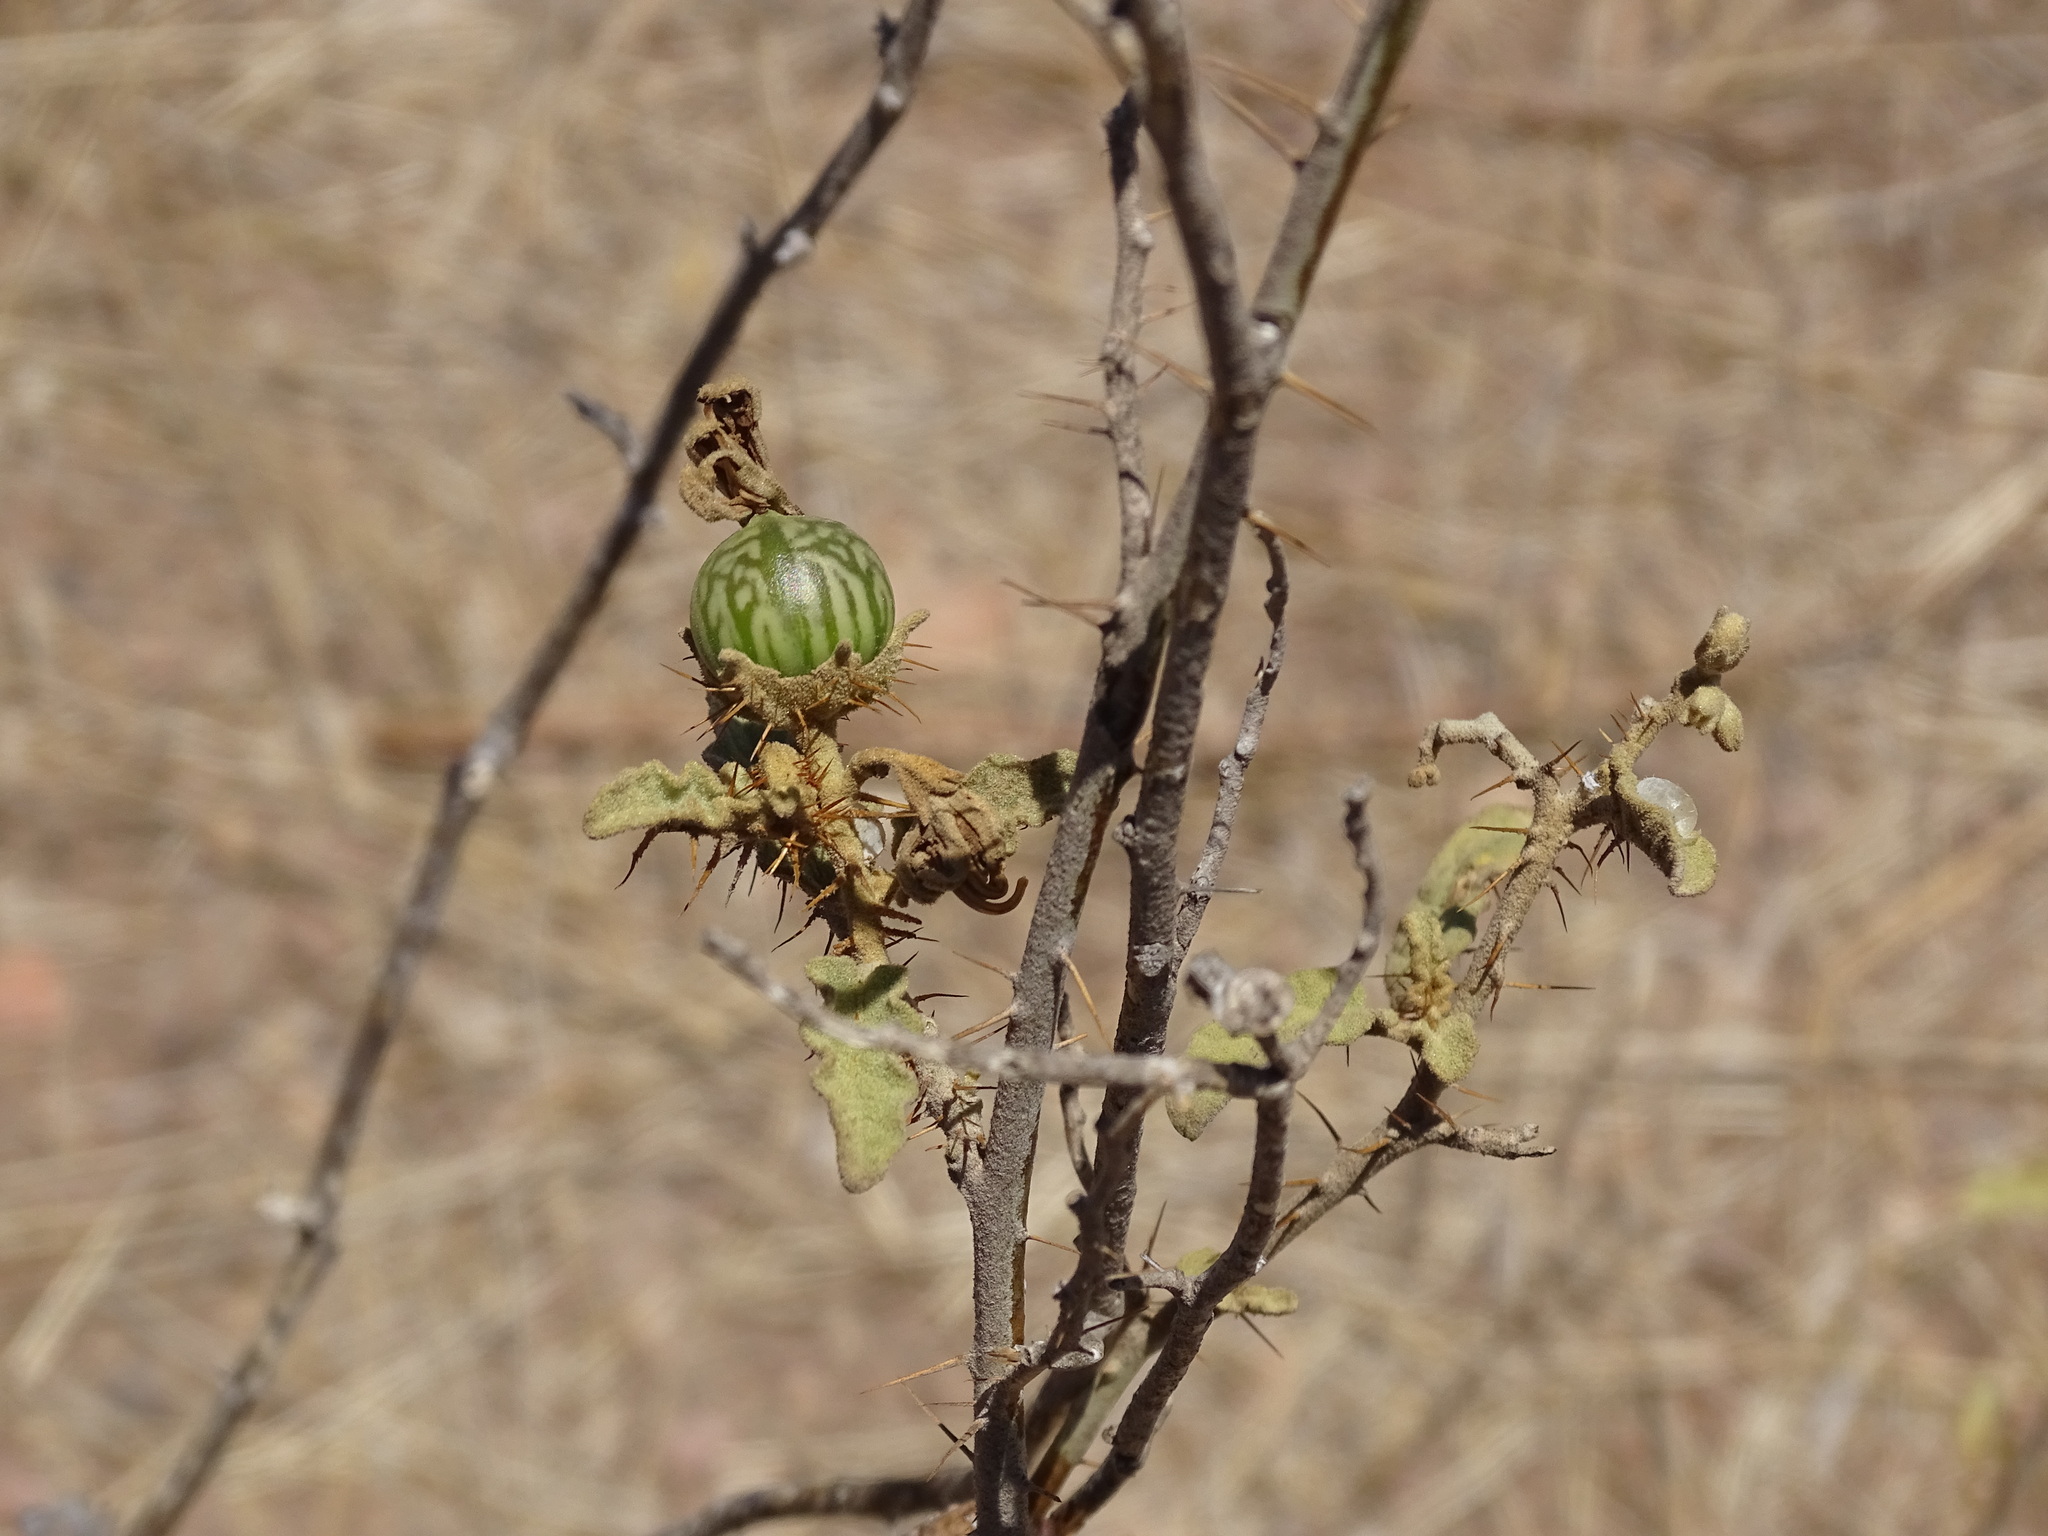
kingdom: Plantae
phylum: Tracheophyta
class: Magnoliopsida
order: Solanales
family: Solanaceae
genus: Solanum
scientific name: Solanum houstonii
